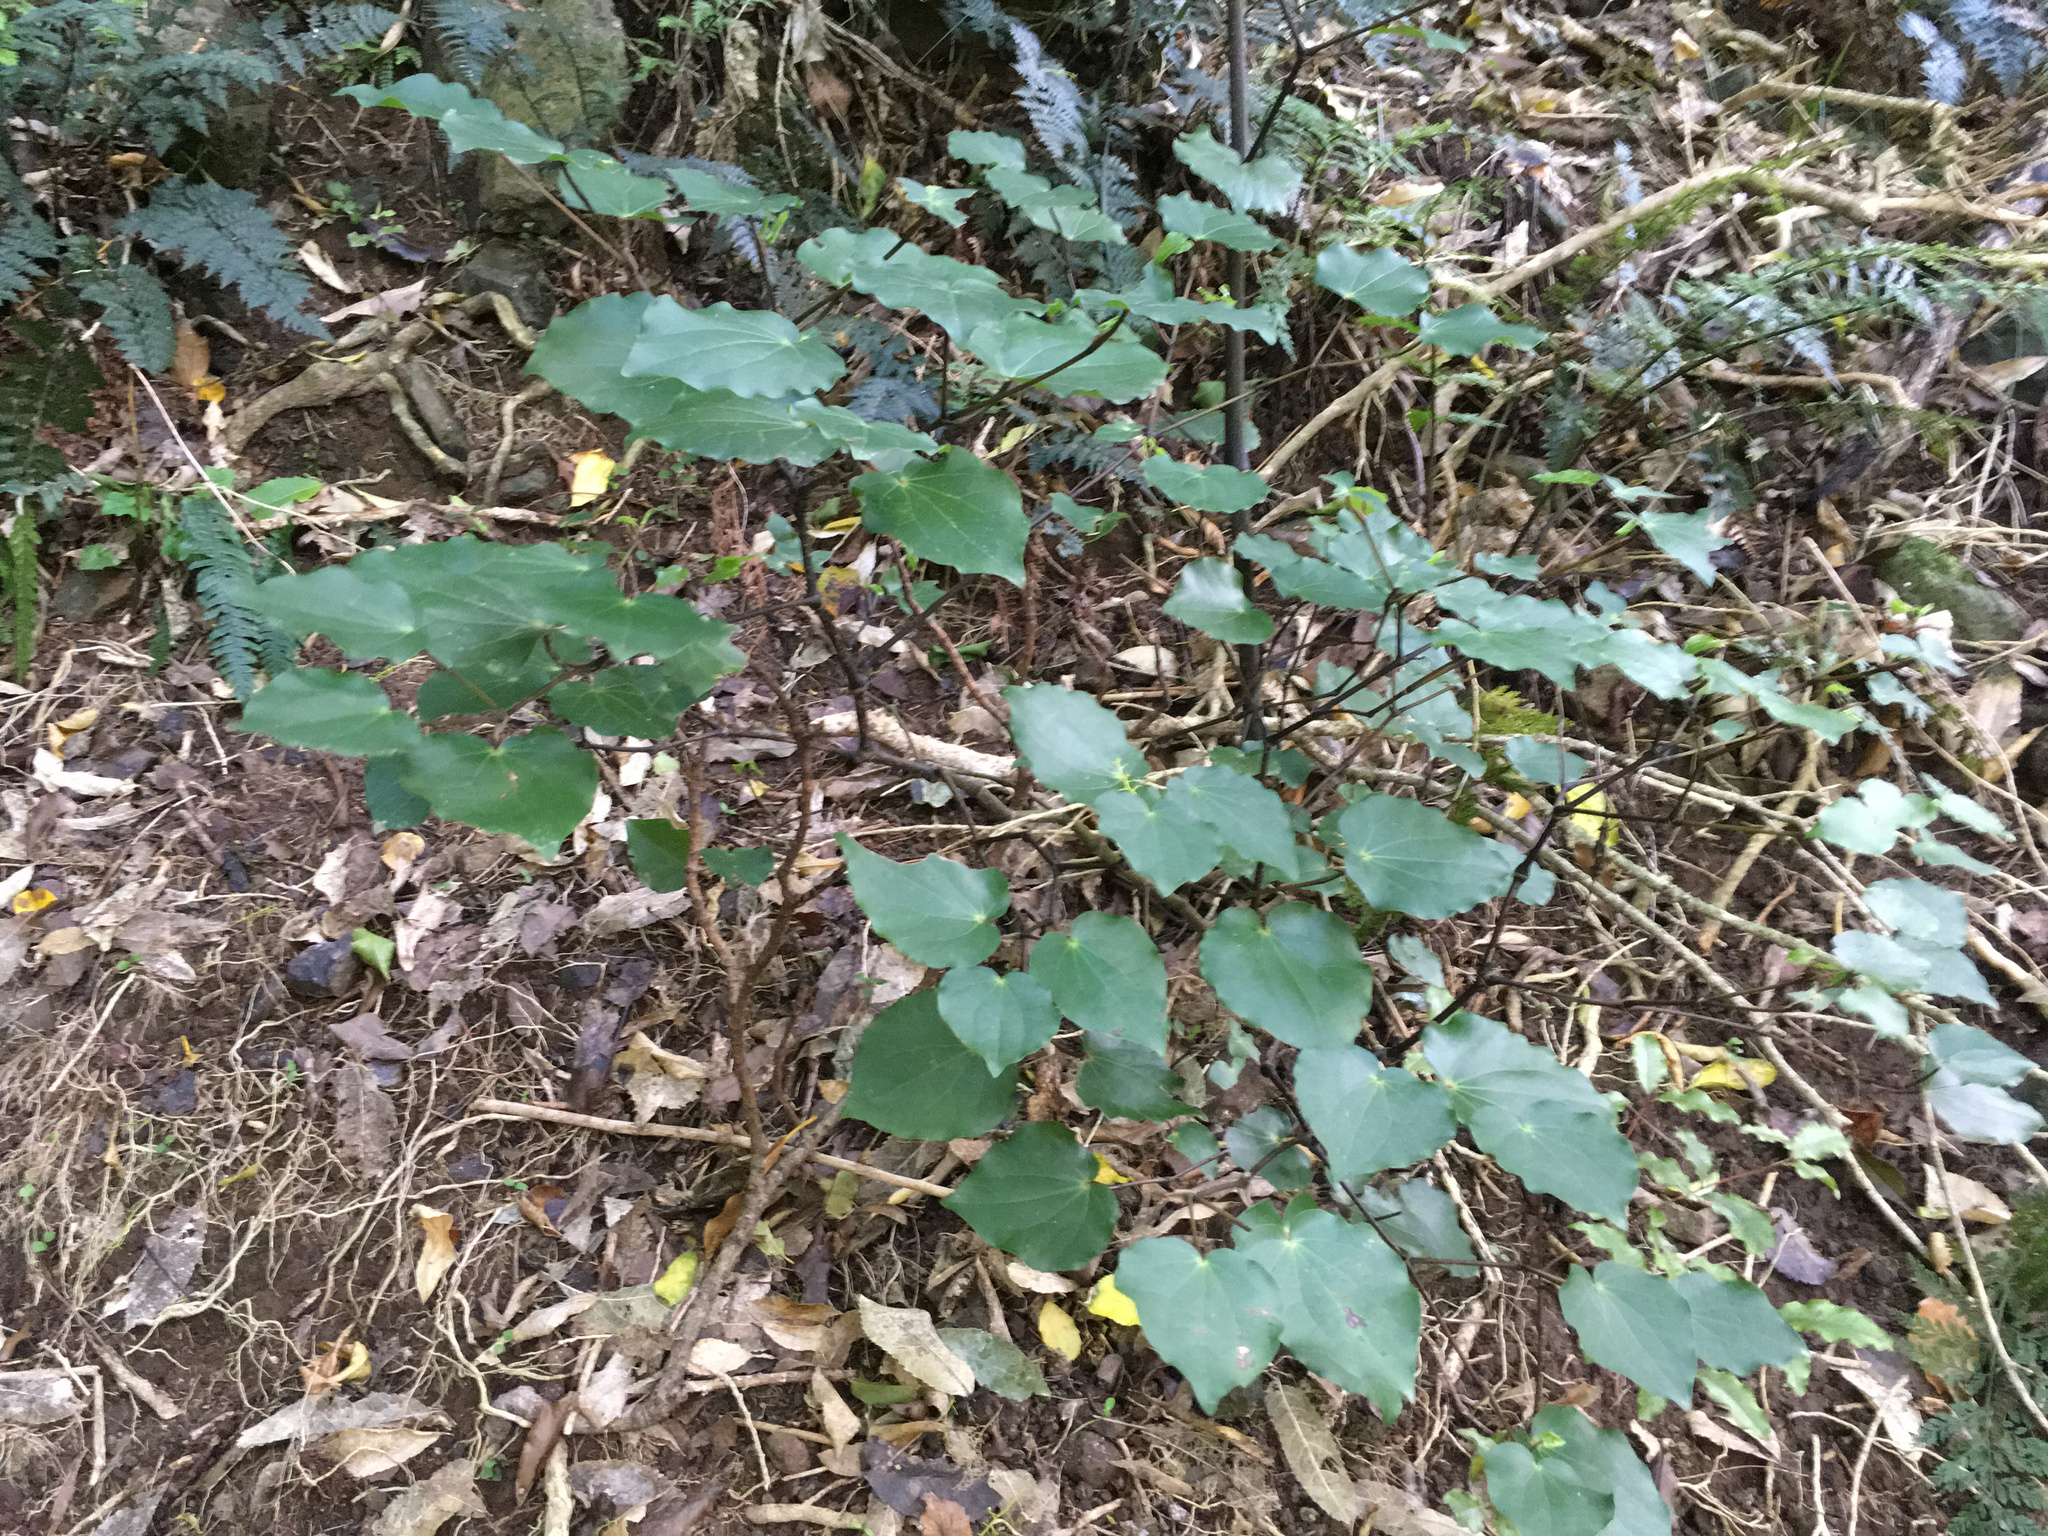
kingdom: Plantae
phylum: Tracheophyta
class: Magnoliopsida
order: Piperales
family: Piperaceae
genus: Macropiper
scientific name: Macropiper excelsum
